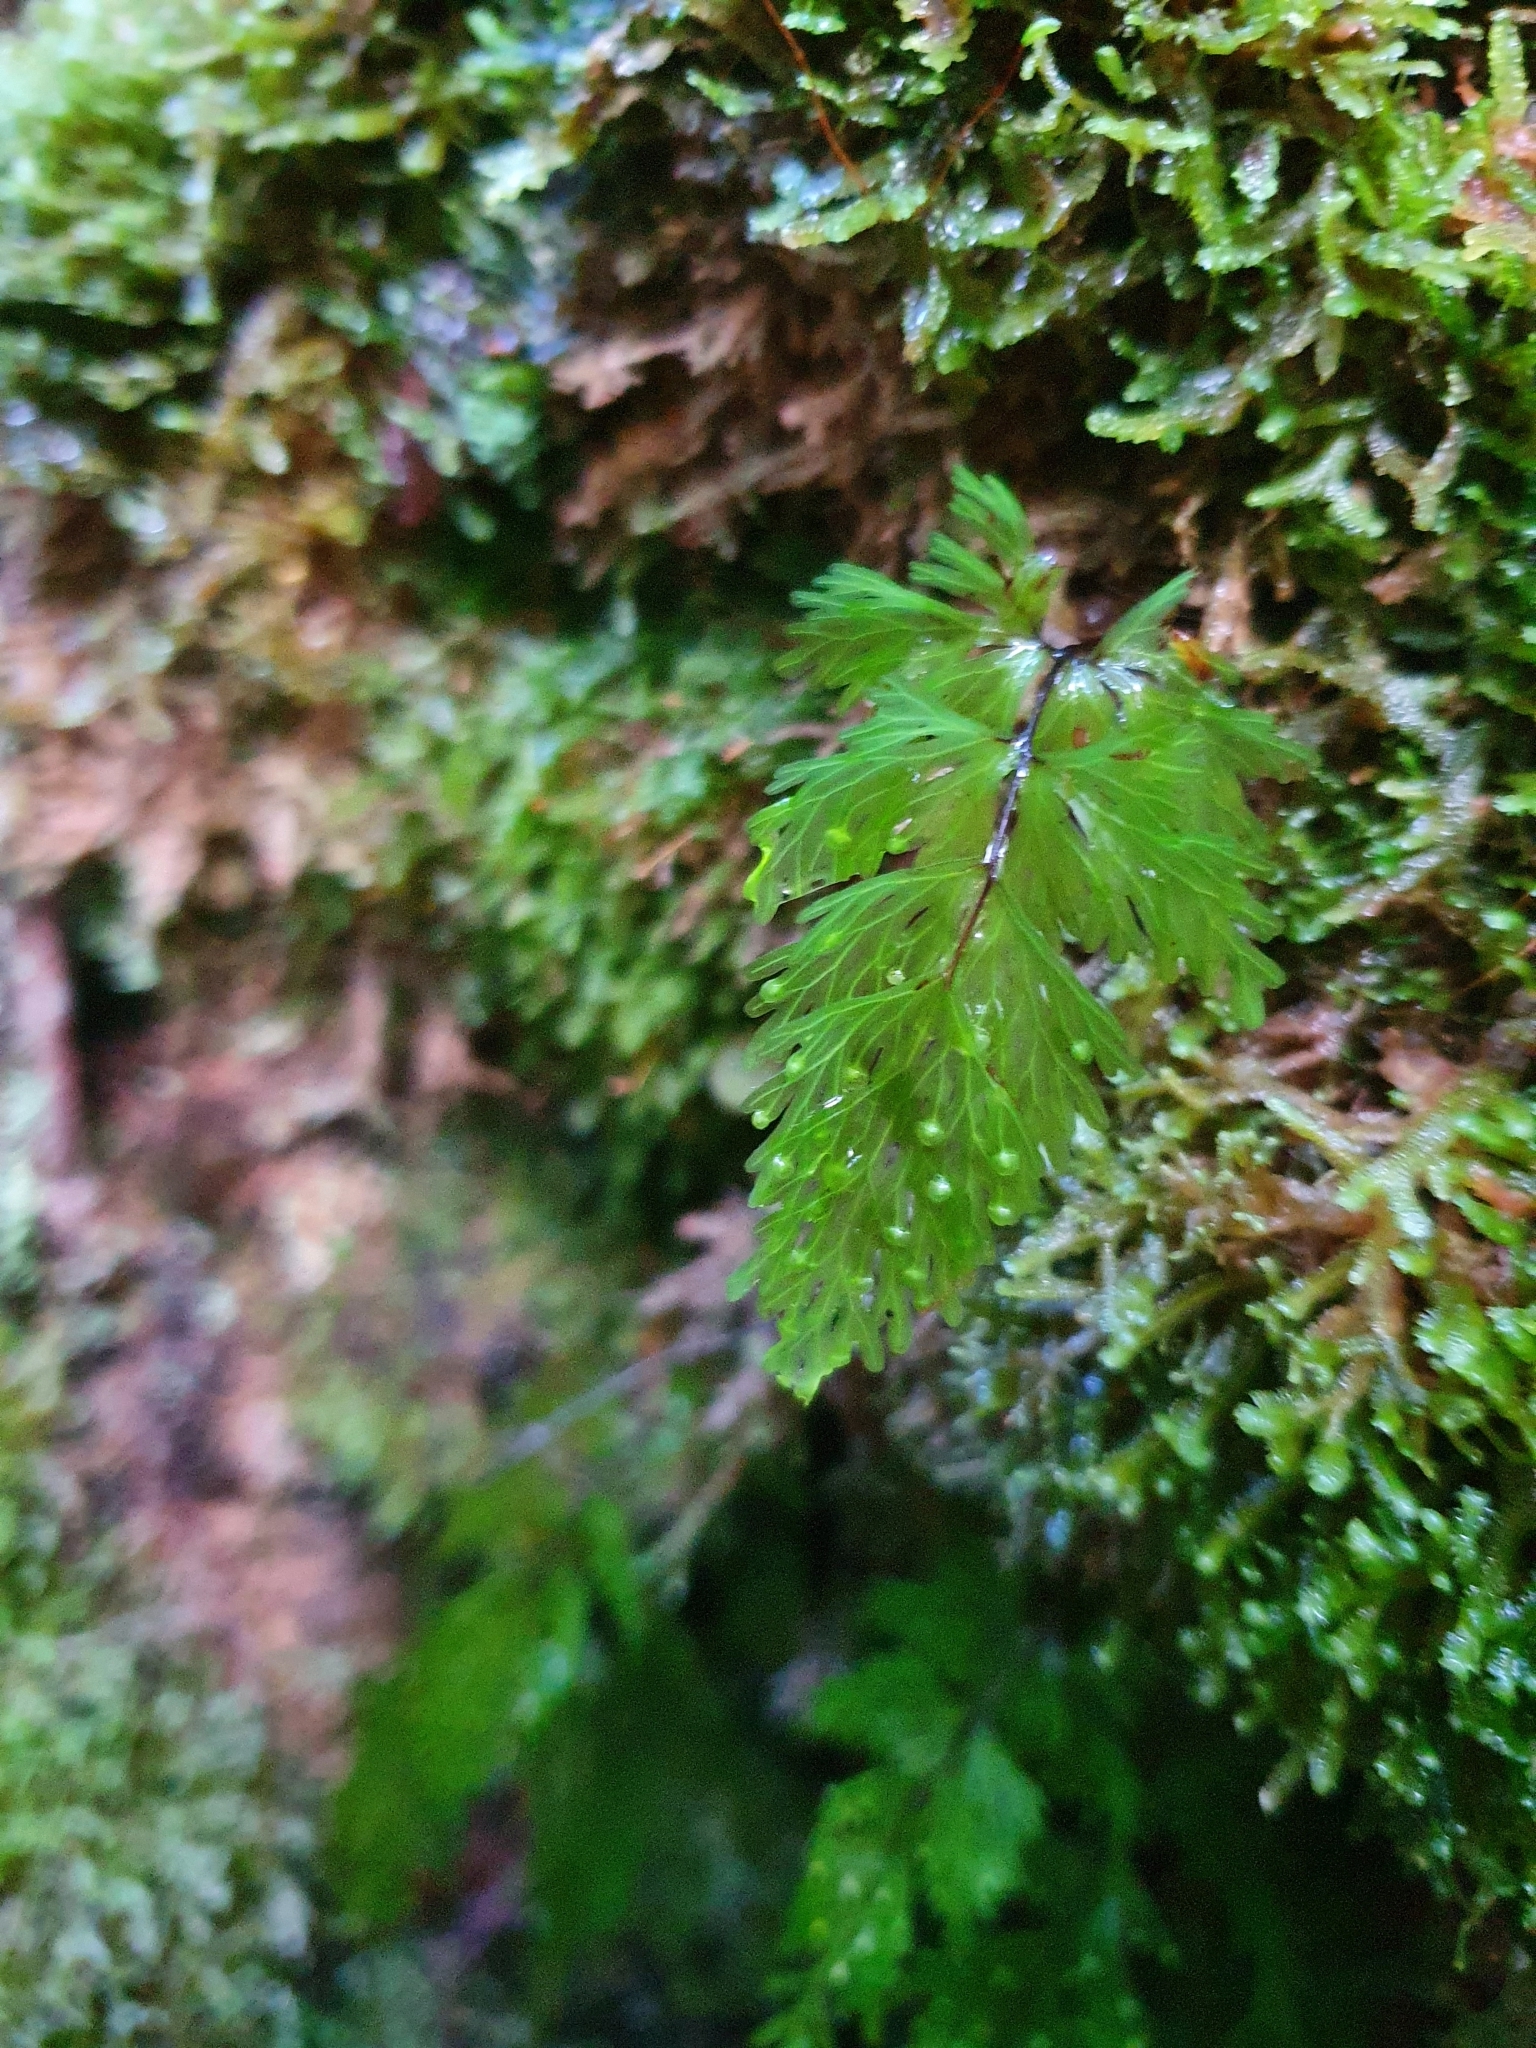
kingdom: Plantae
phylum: Tracheophyta
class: Polypodiopsida
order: Hymenophyllales
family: Hymenophyllaceae
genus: Hymenophyllum
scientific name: Hymenophyllum flabellatum
